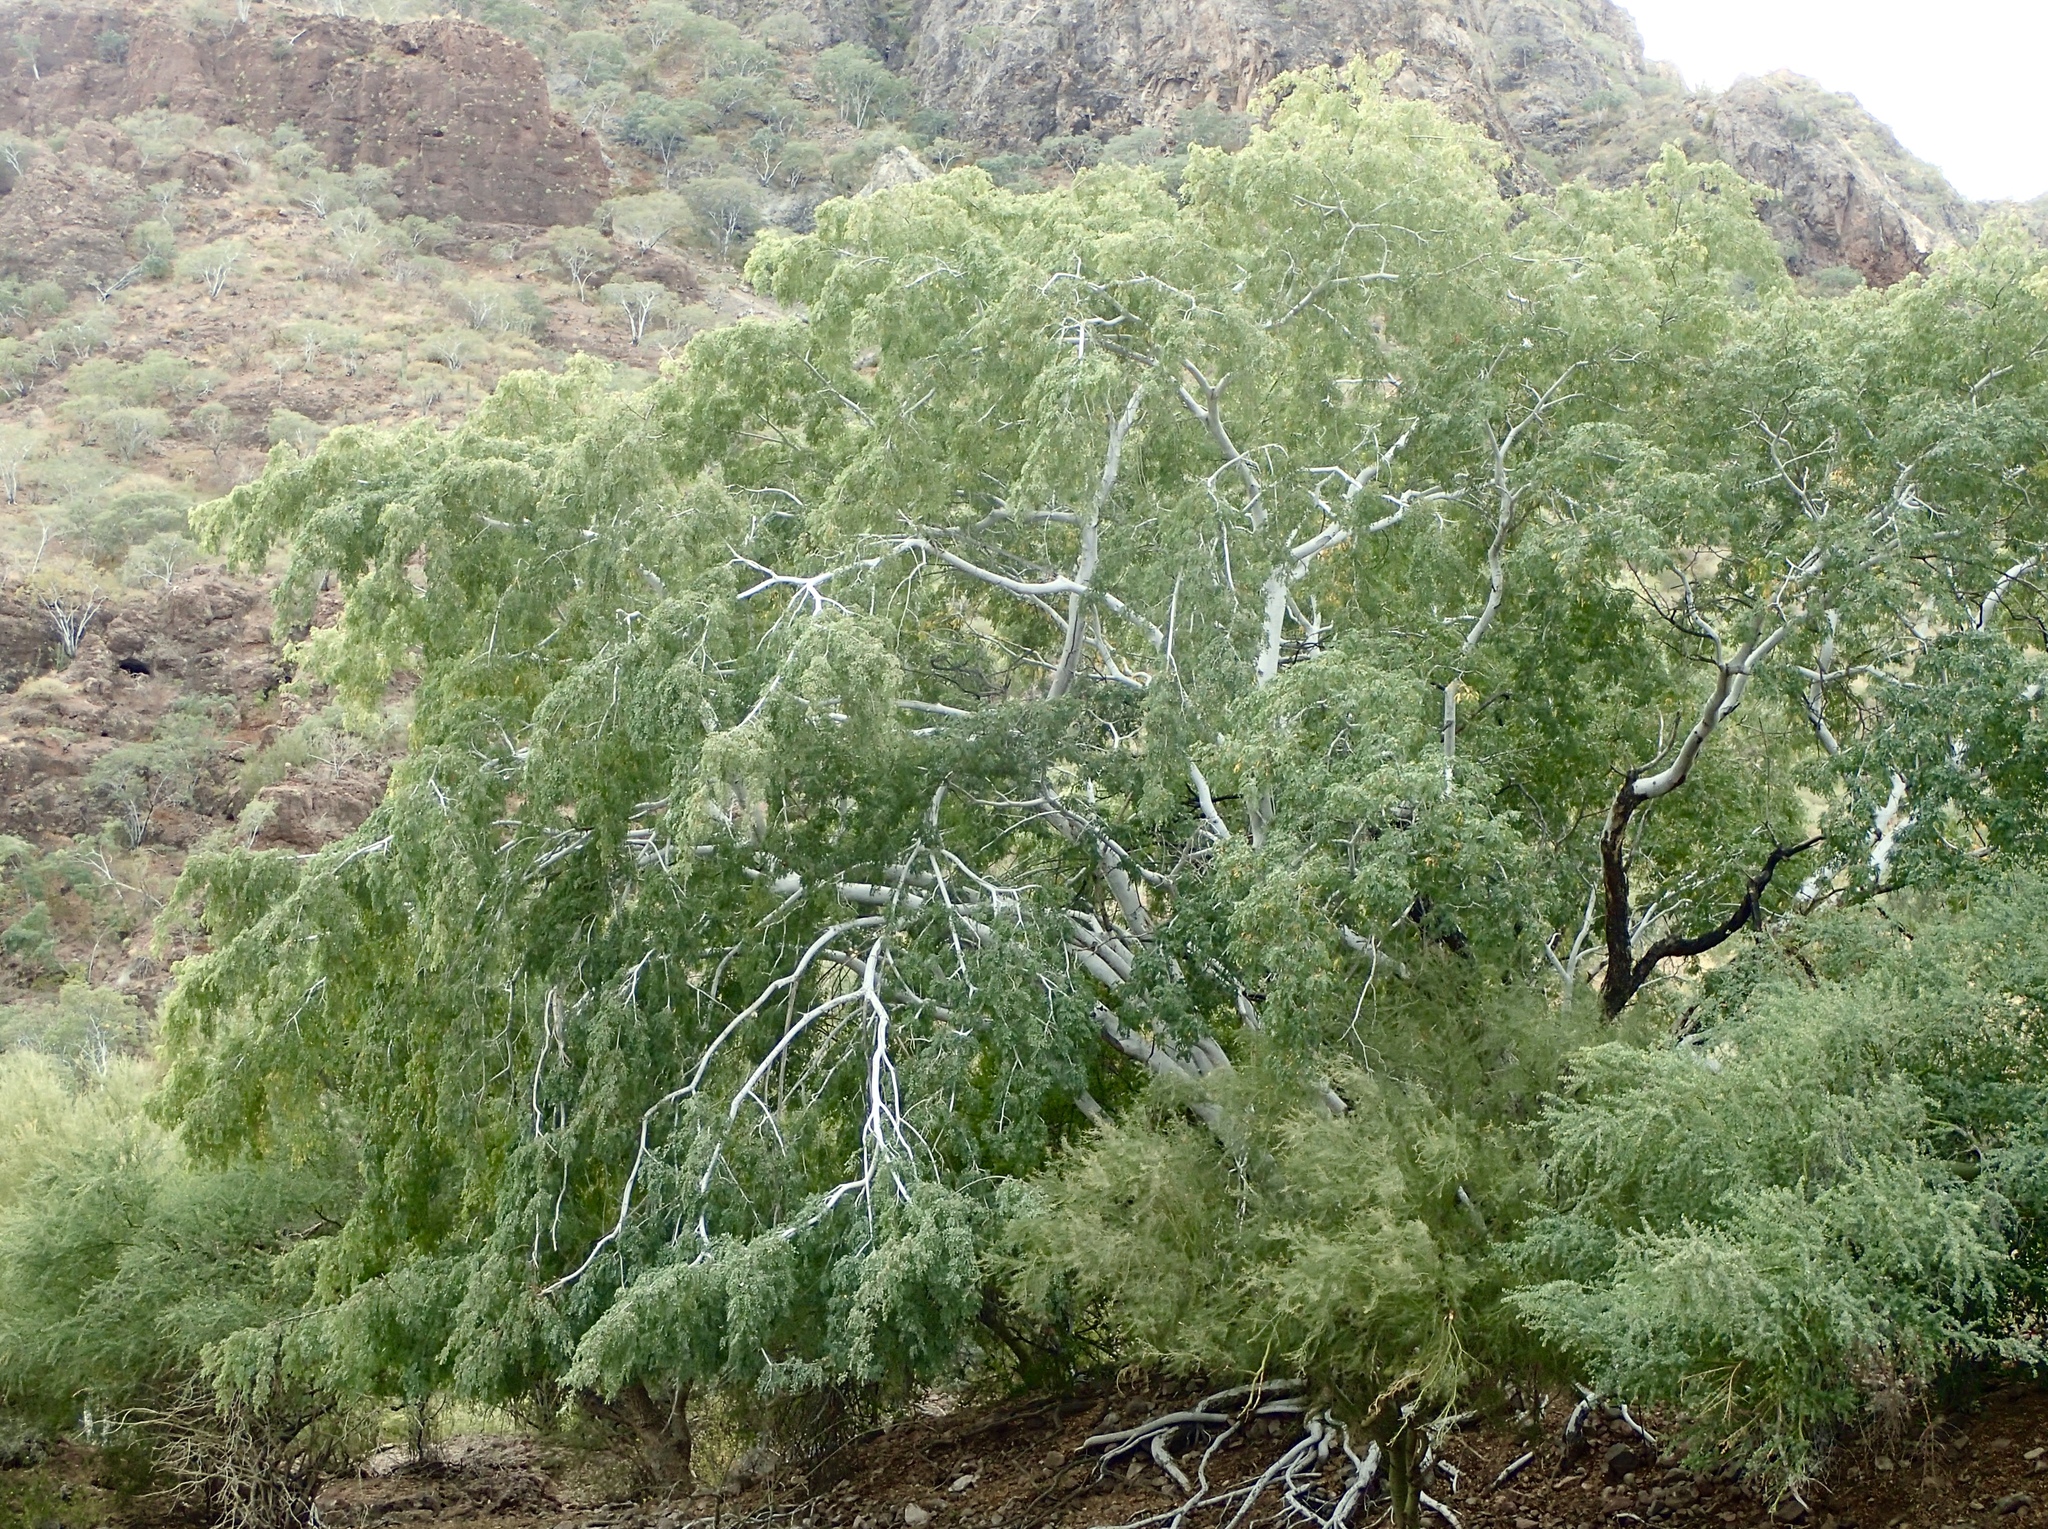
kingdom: Plantae
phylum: Tracheophyta
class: Magnoliopsida
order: Fabales
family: Fabaceae
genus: Lysiloma
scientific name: Lysiloma candidum
